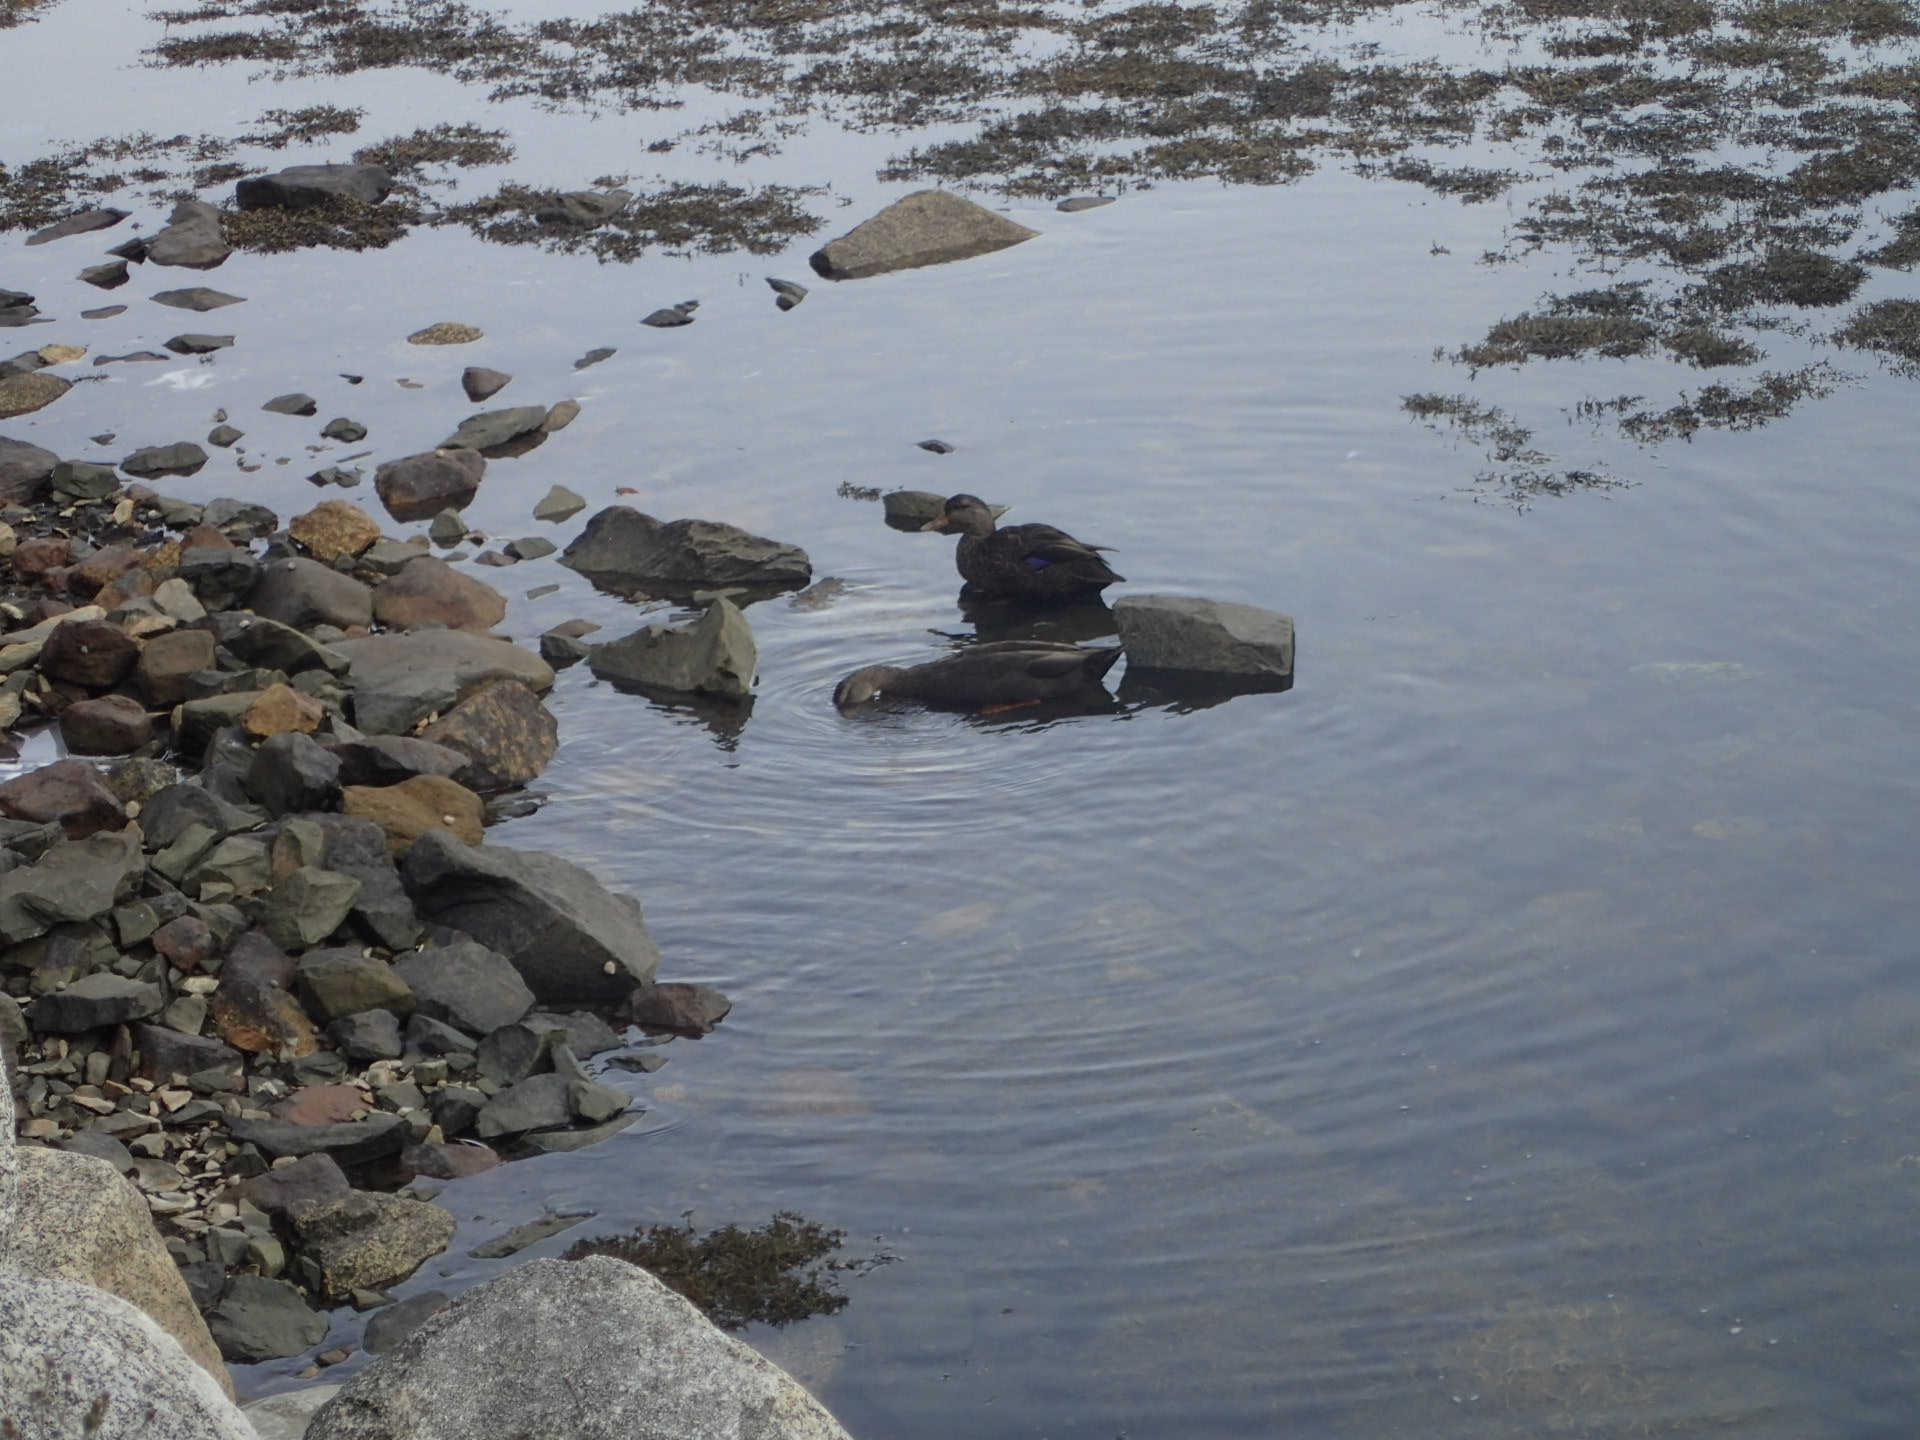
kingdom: Animalia
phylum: Chordata
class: Aves
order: Anseriformes
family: Anatidae
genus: Anas
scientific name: Anas rubripes
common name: American black duck
